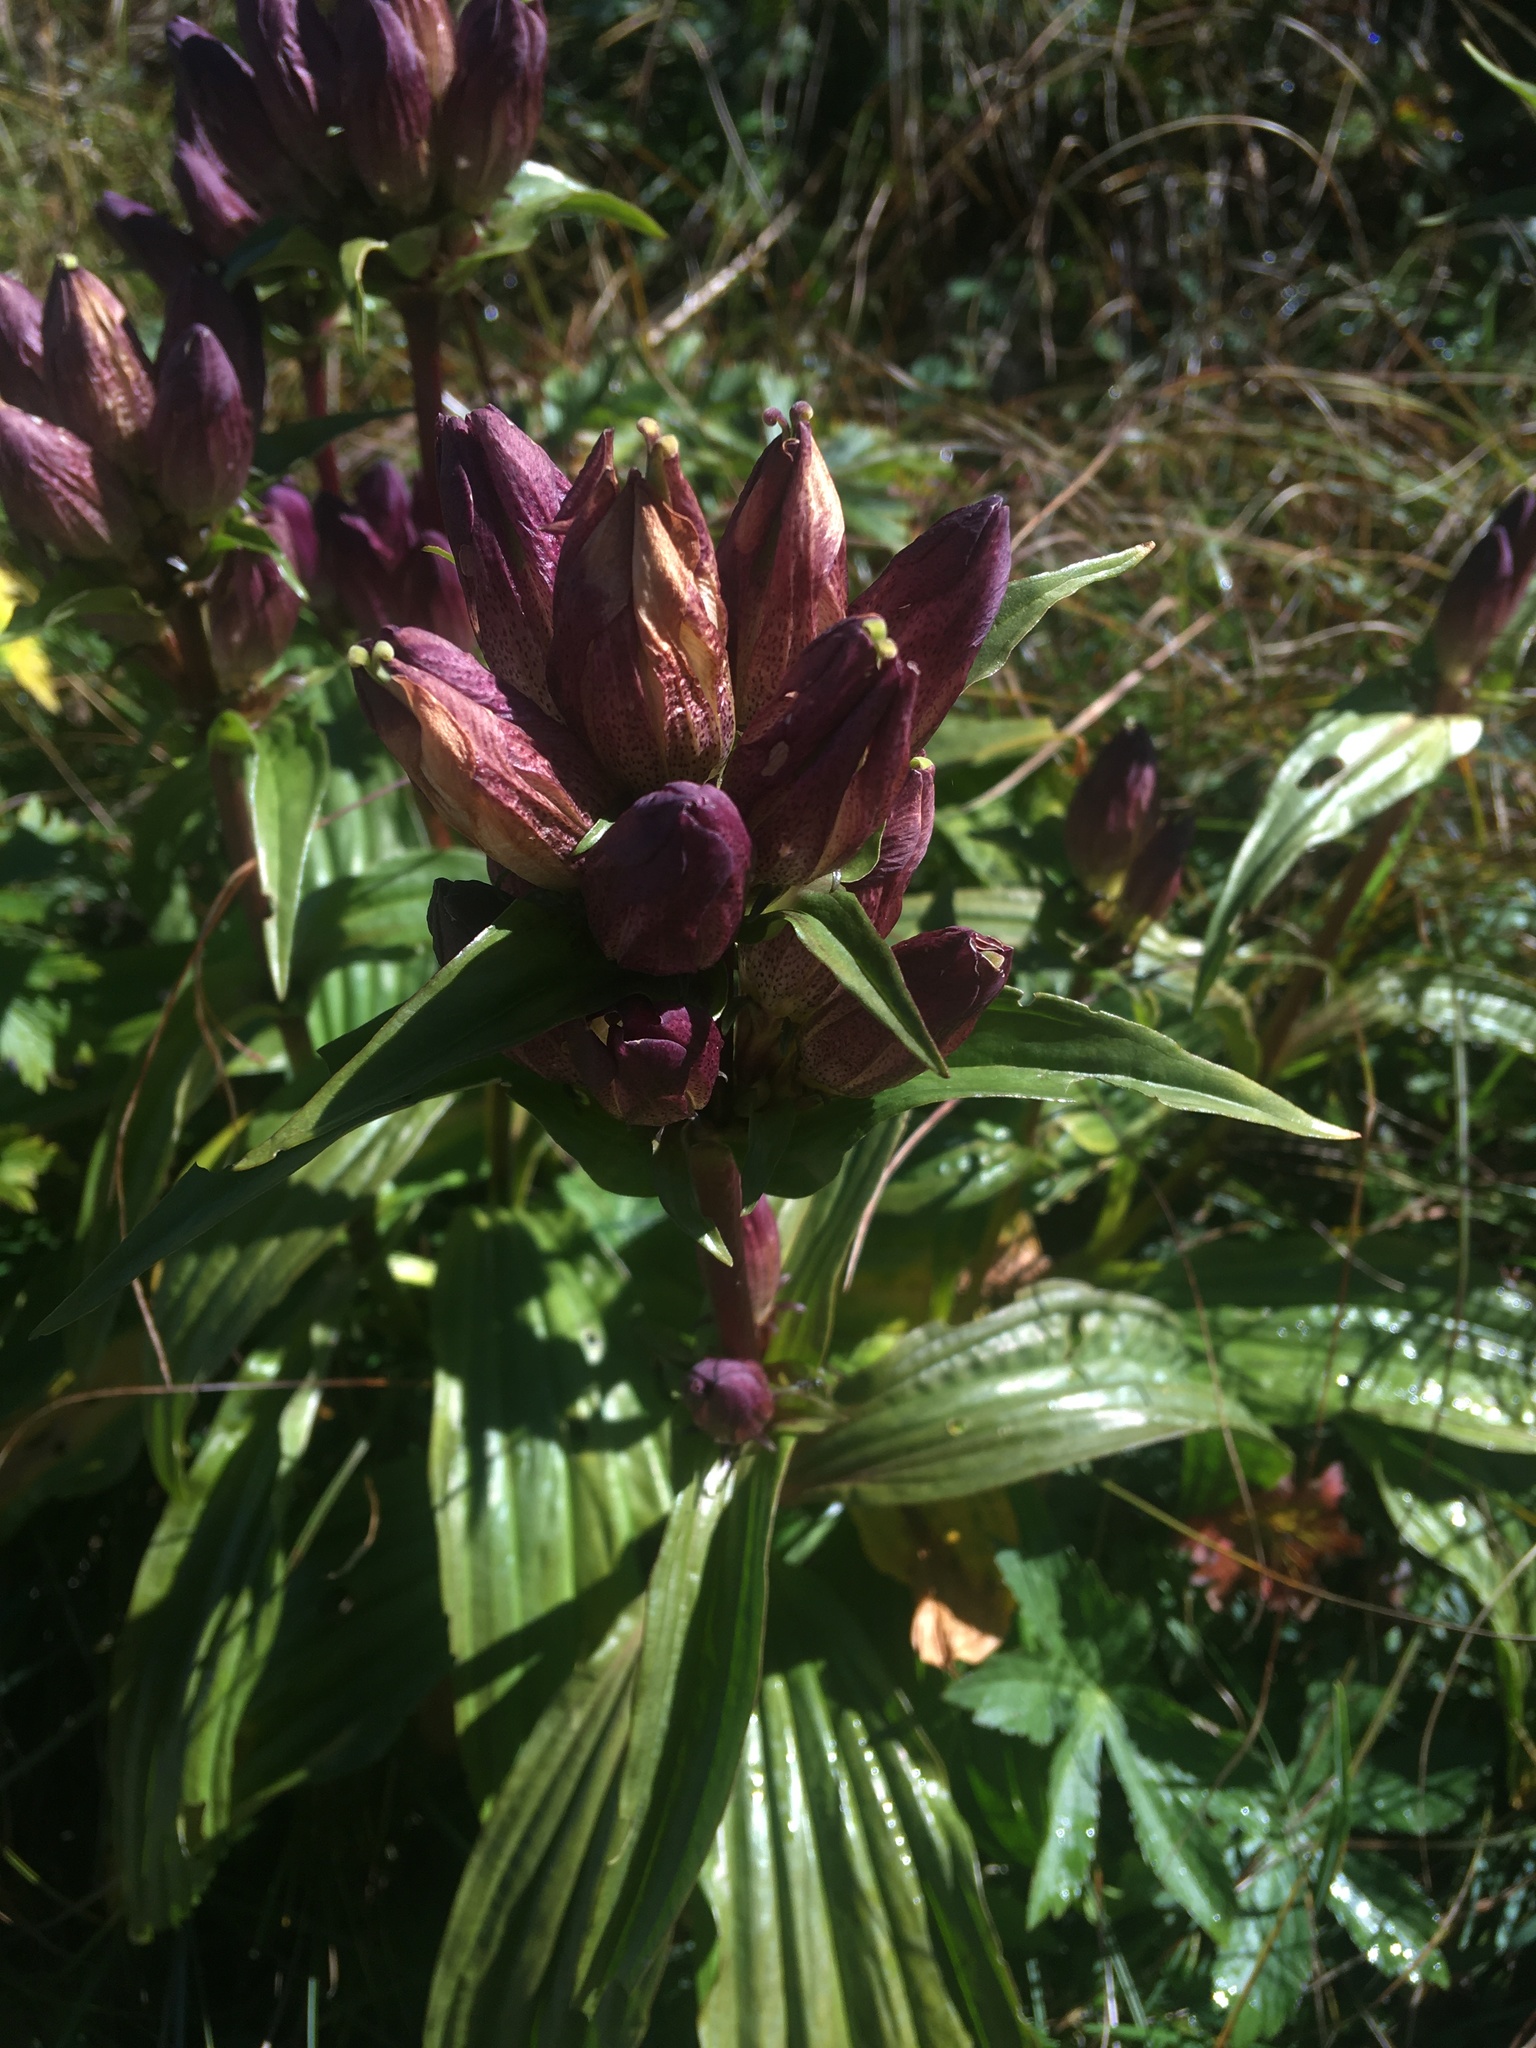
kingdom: Plantae
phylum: Tracheophyta
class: Magnoliopsida
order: Gentianales
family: Gentianaceae
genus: Gentiana
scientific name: Gentiana pannonica
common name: Hungarian gentian
